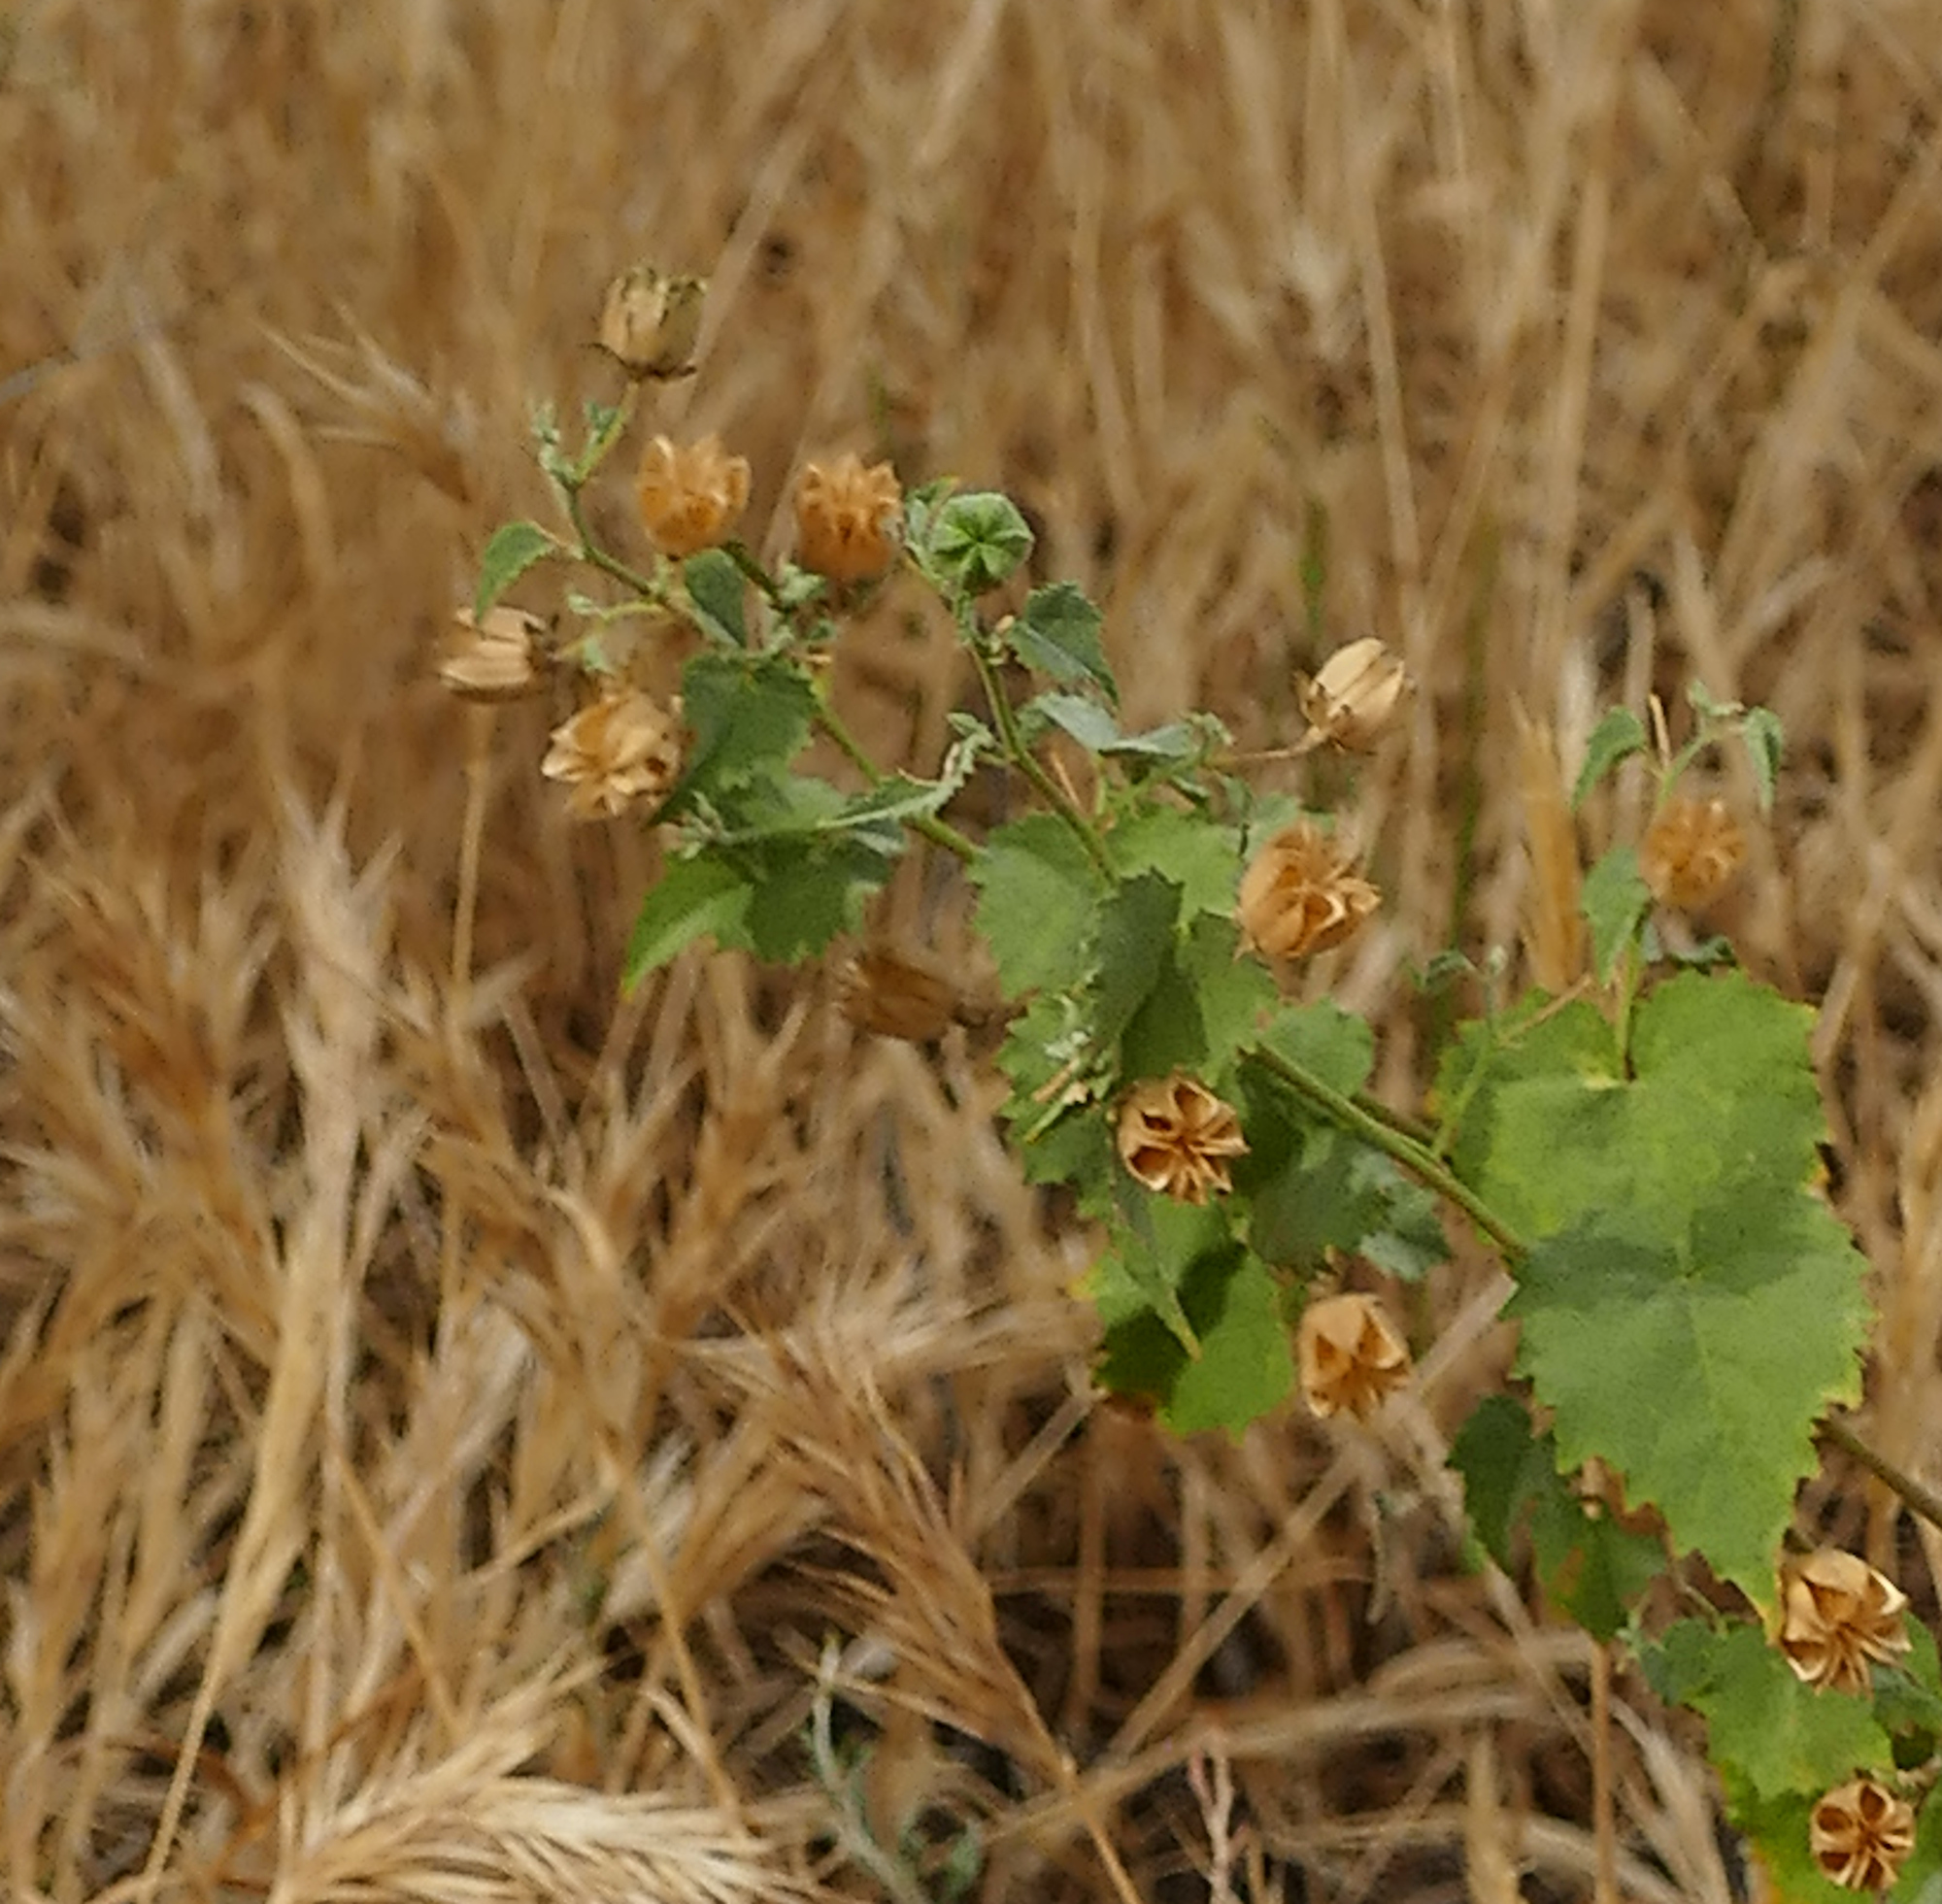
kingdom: Plantae
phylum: Tracheophyta
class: Magnoliopsida
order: Malvales
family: Malvaceae
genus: Abutilon
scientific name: Abutilon parvulum
